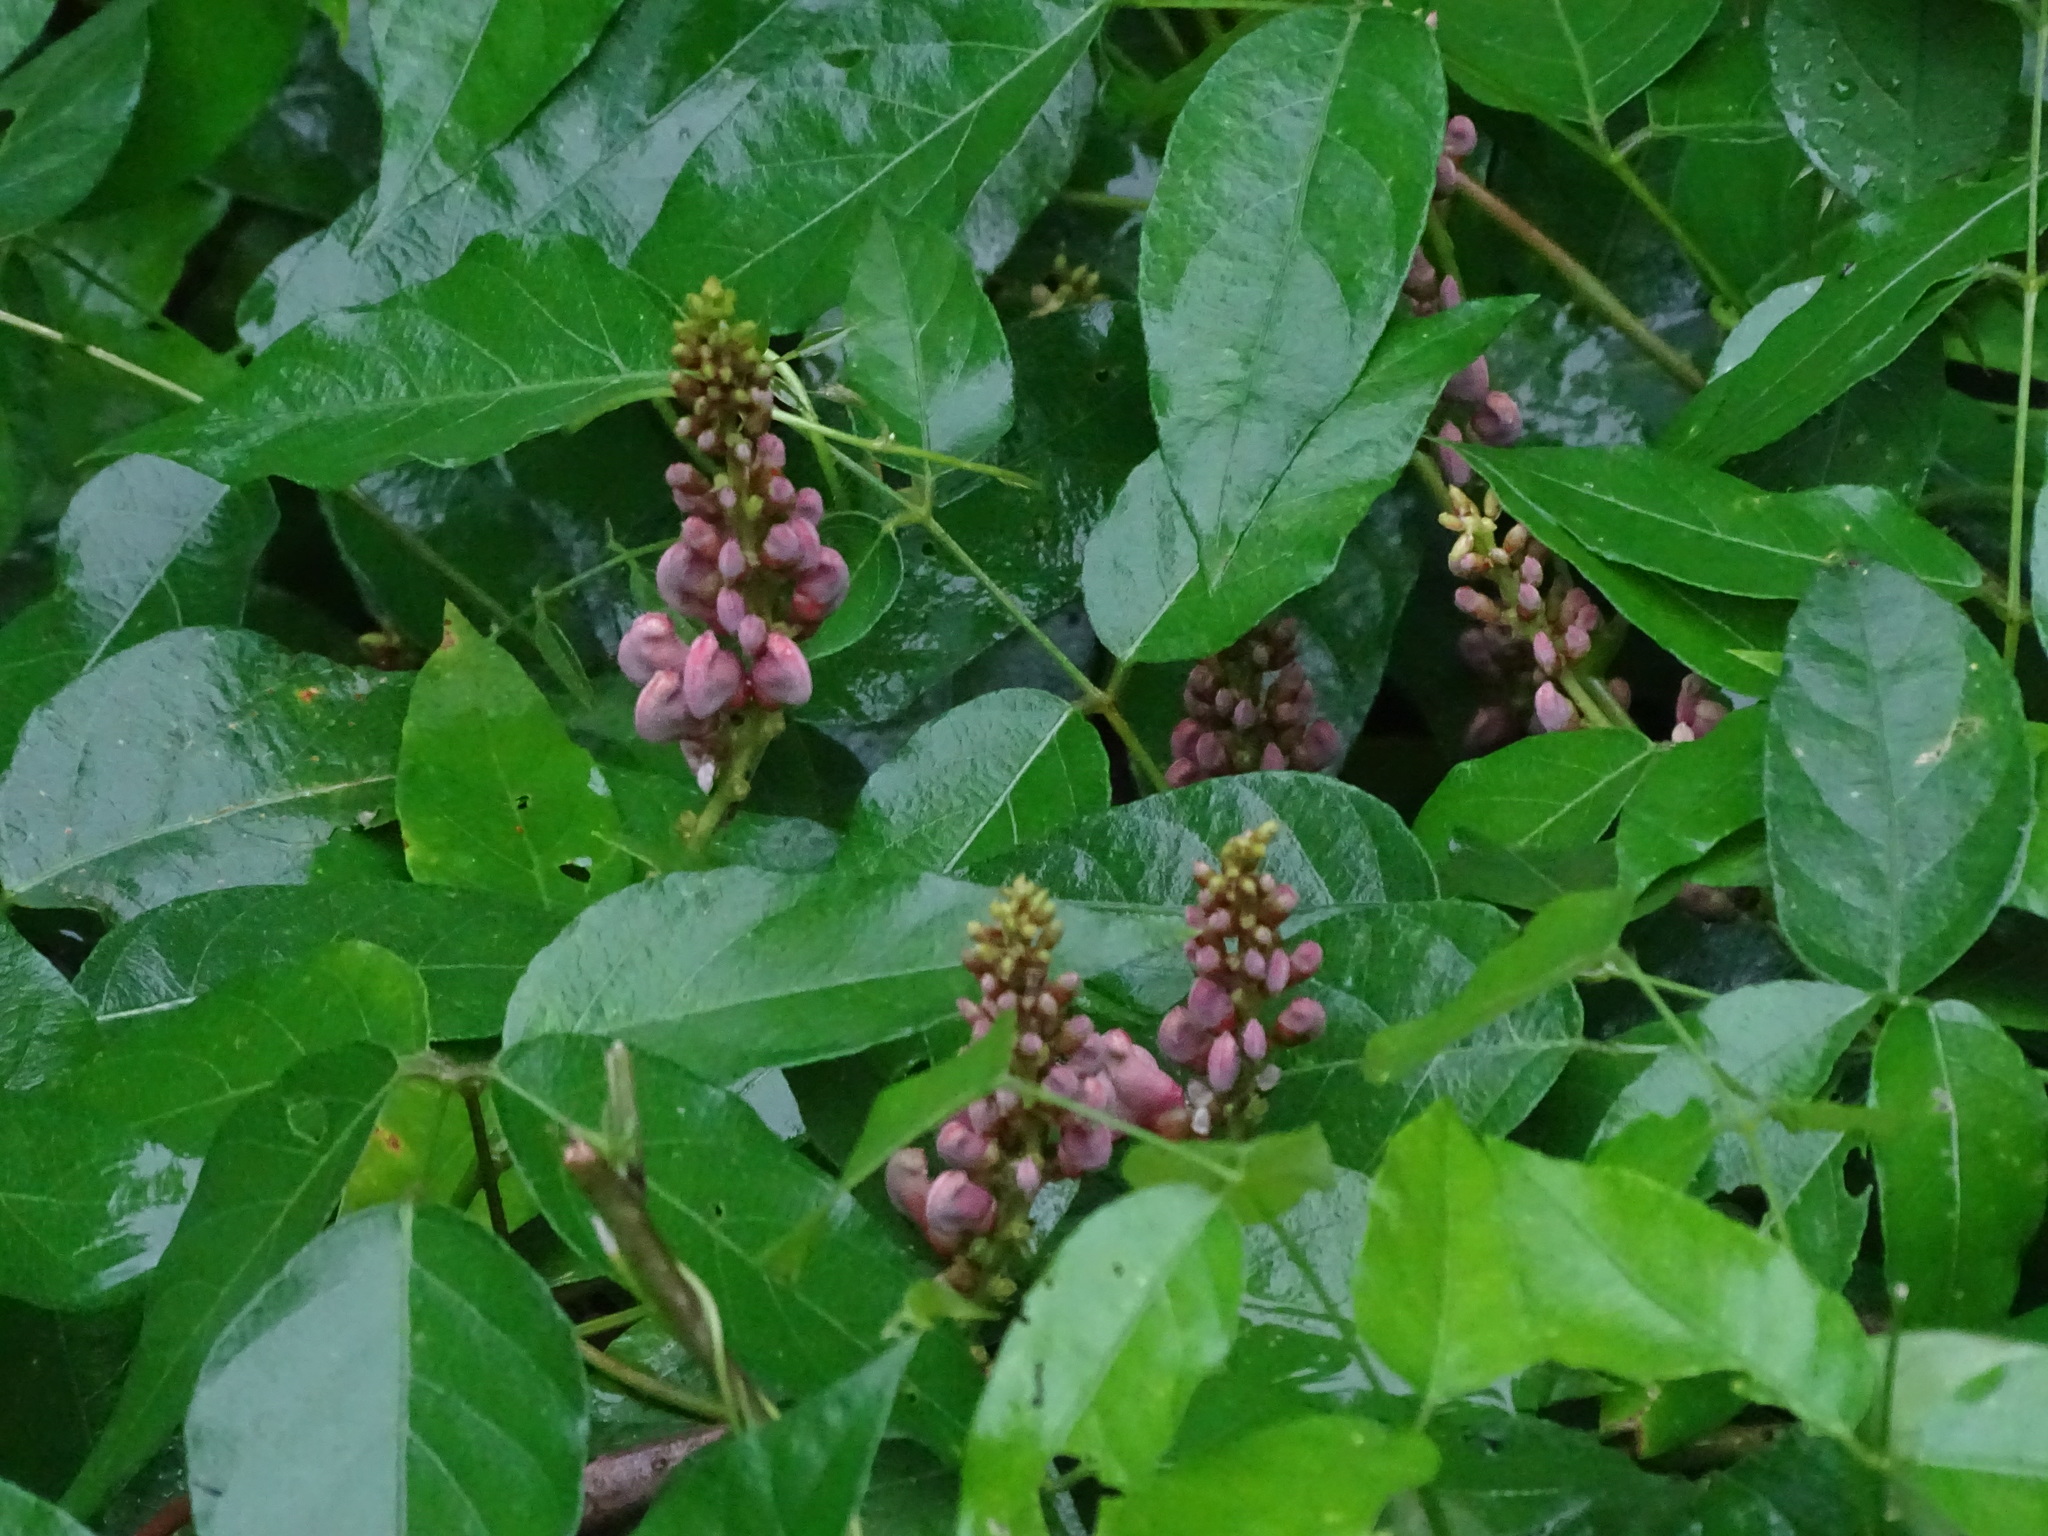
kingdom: Plantae
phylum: Tracheophyta
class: Magnoliopsida
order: Fabales
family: Fabaceae
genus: Apios
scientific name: Apios americana
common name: American potato-bean
